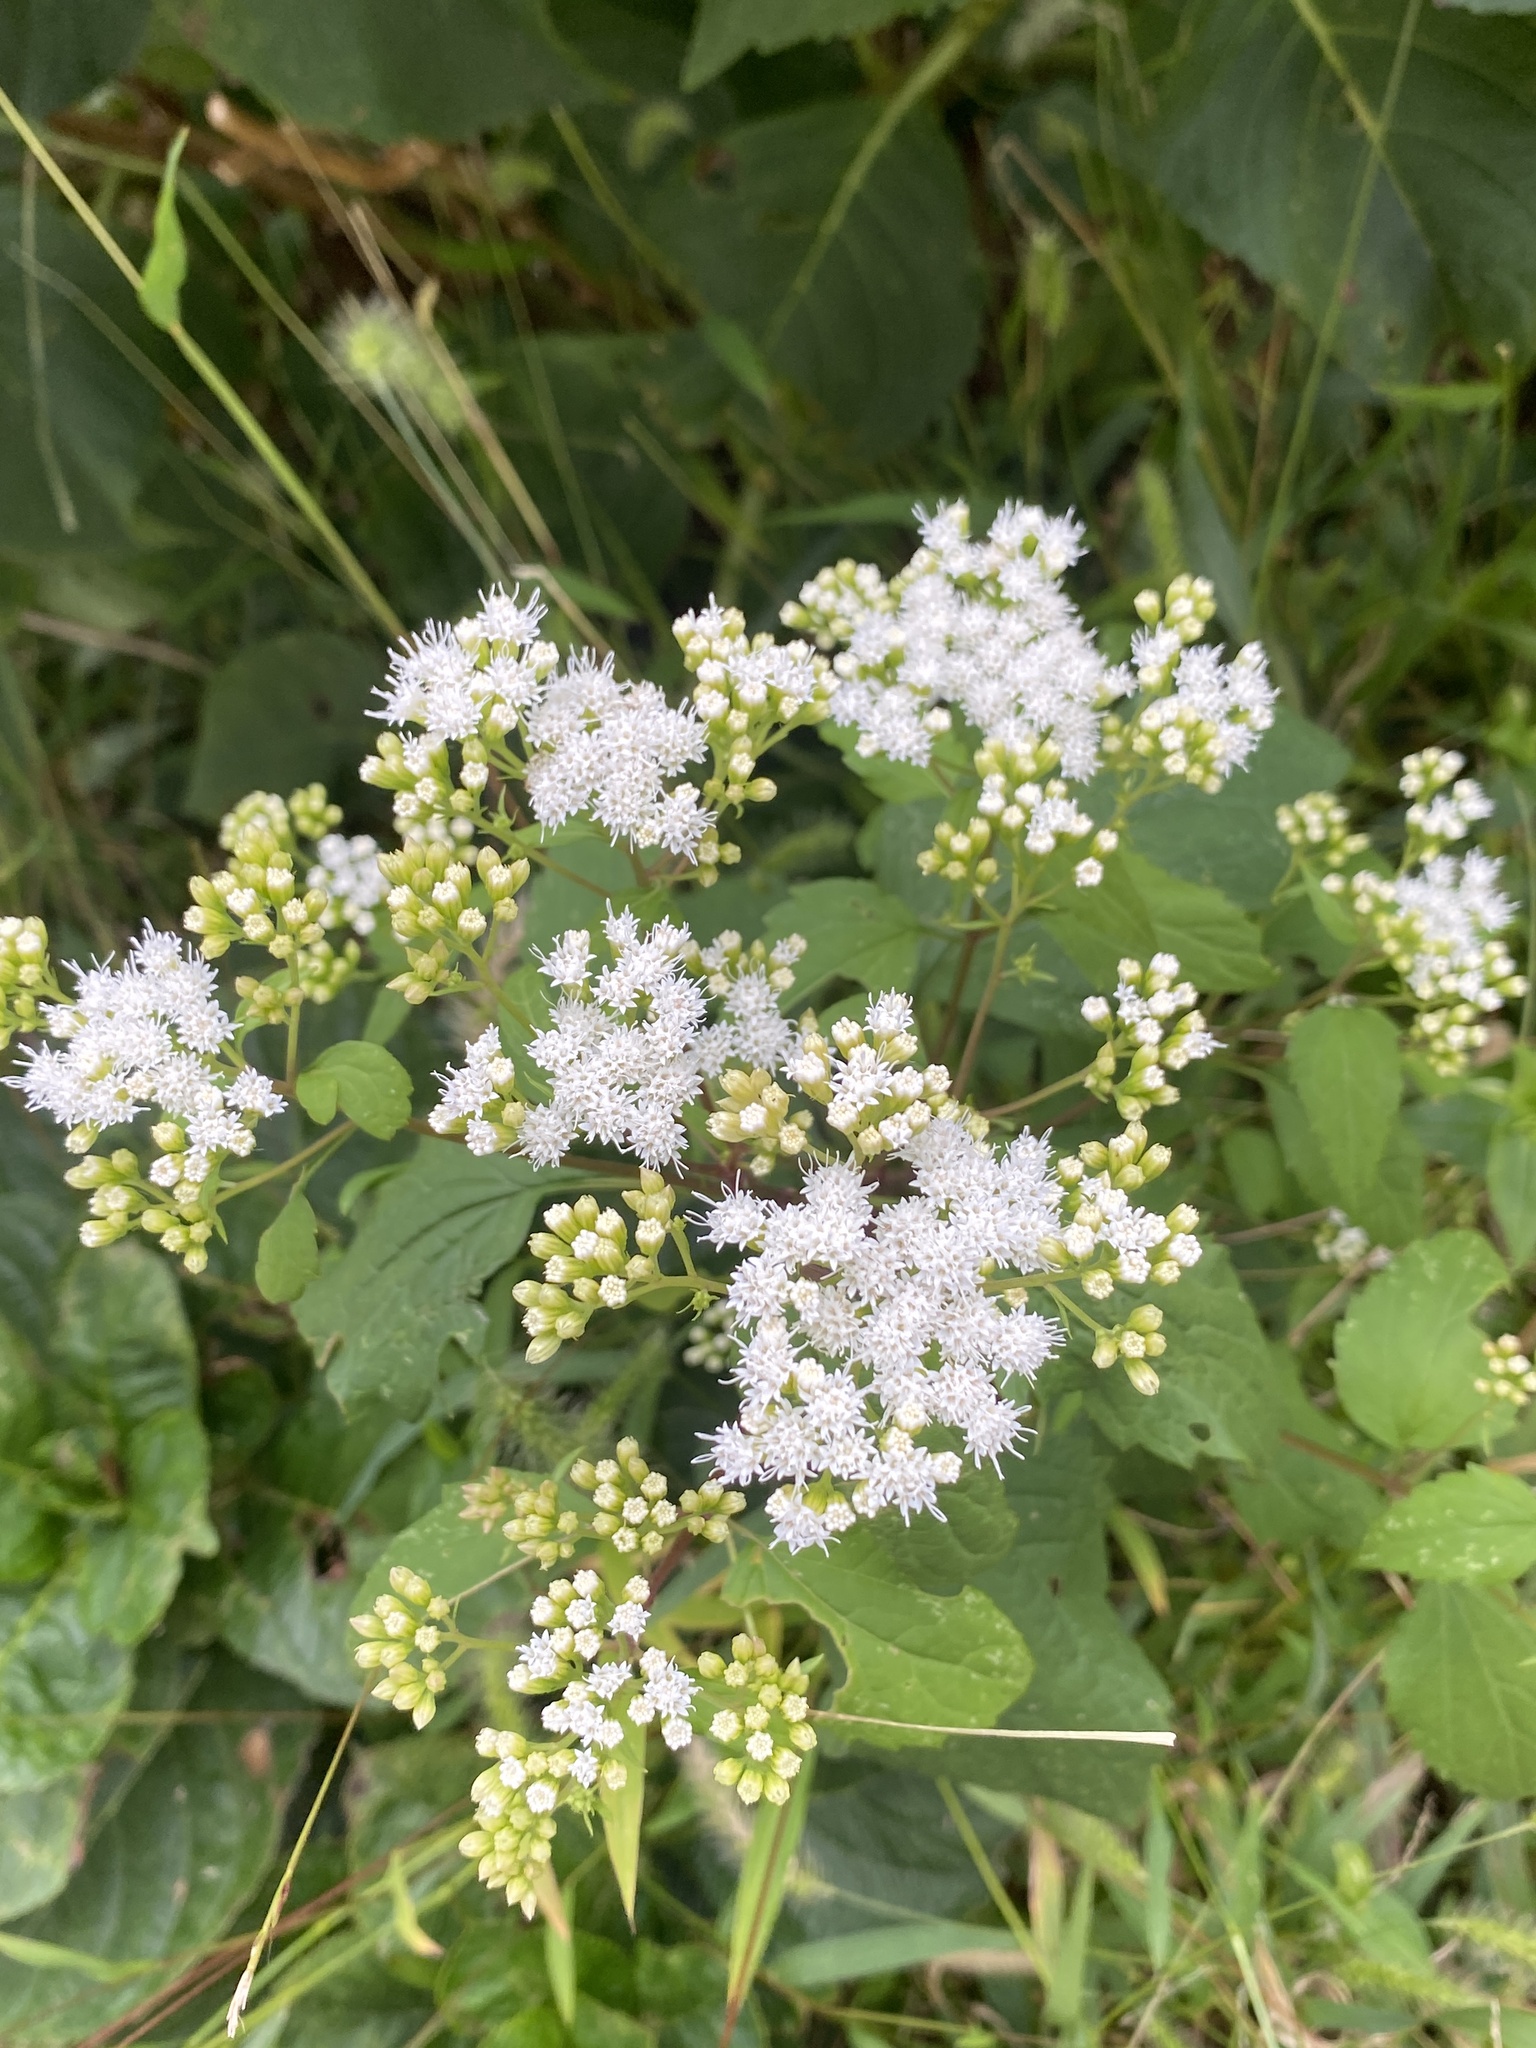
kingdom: Plantae
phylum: Tracheophyta
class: Magnoliopsida
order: Asterales
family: Asteraceae
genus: Ageratina
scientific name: Ageratina altissima
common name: White snakeroot
